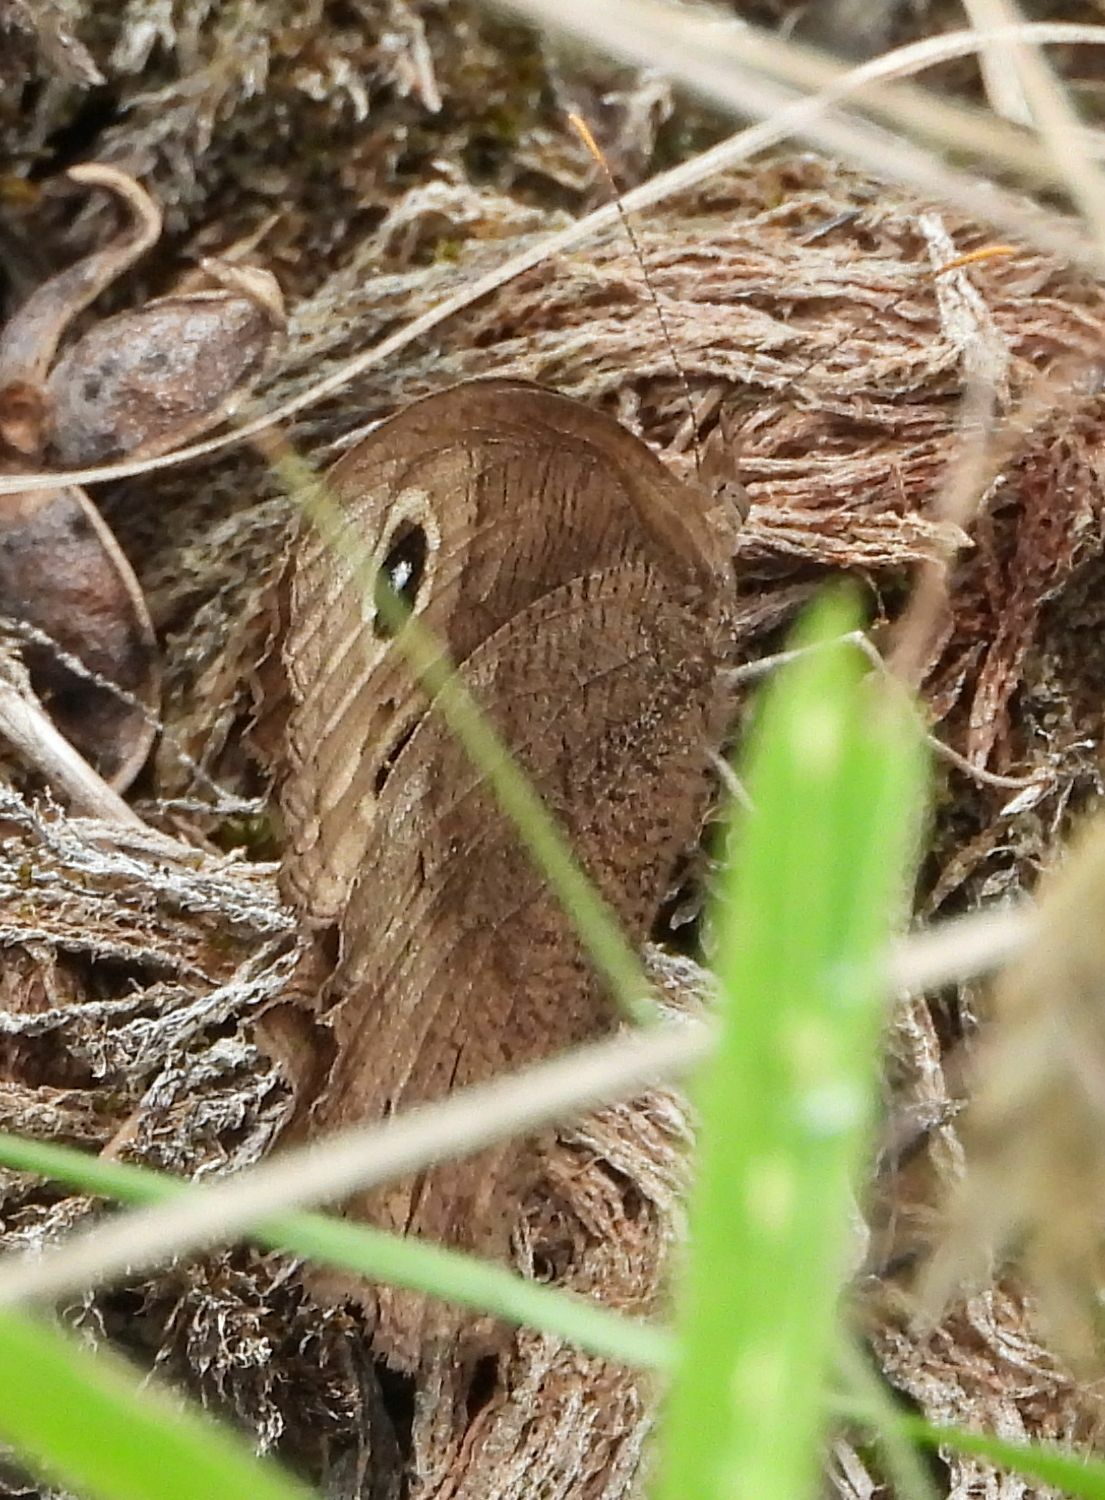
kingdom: Animalia
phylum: Arthropoda
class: Insecta
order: Lepidoptera
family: Nymphalidae
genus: Cercyonis
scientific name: Cercyonis pegala
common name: Common wood-nymph
